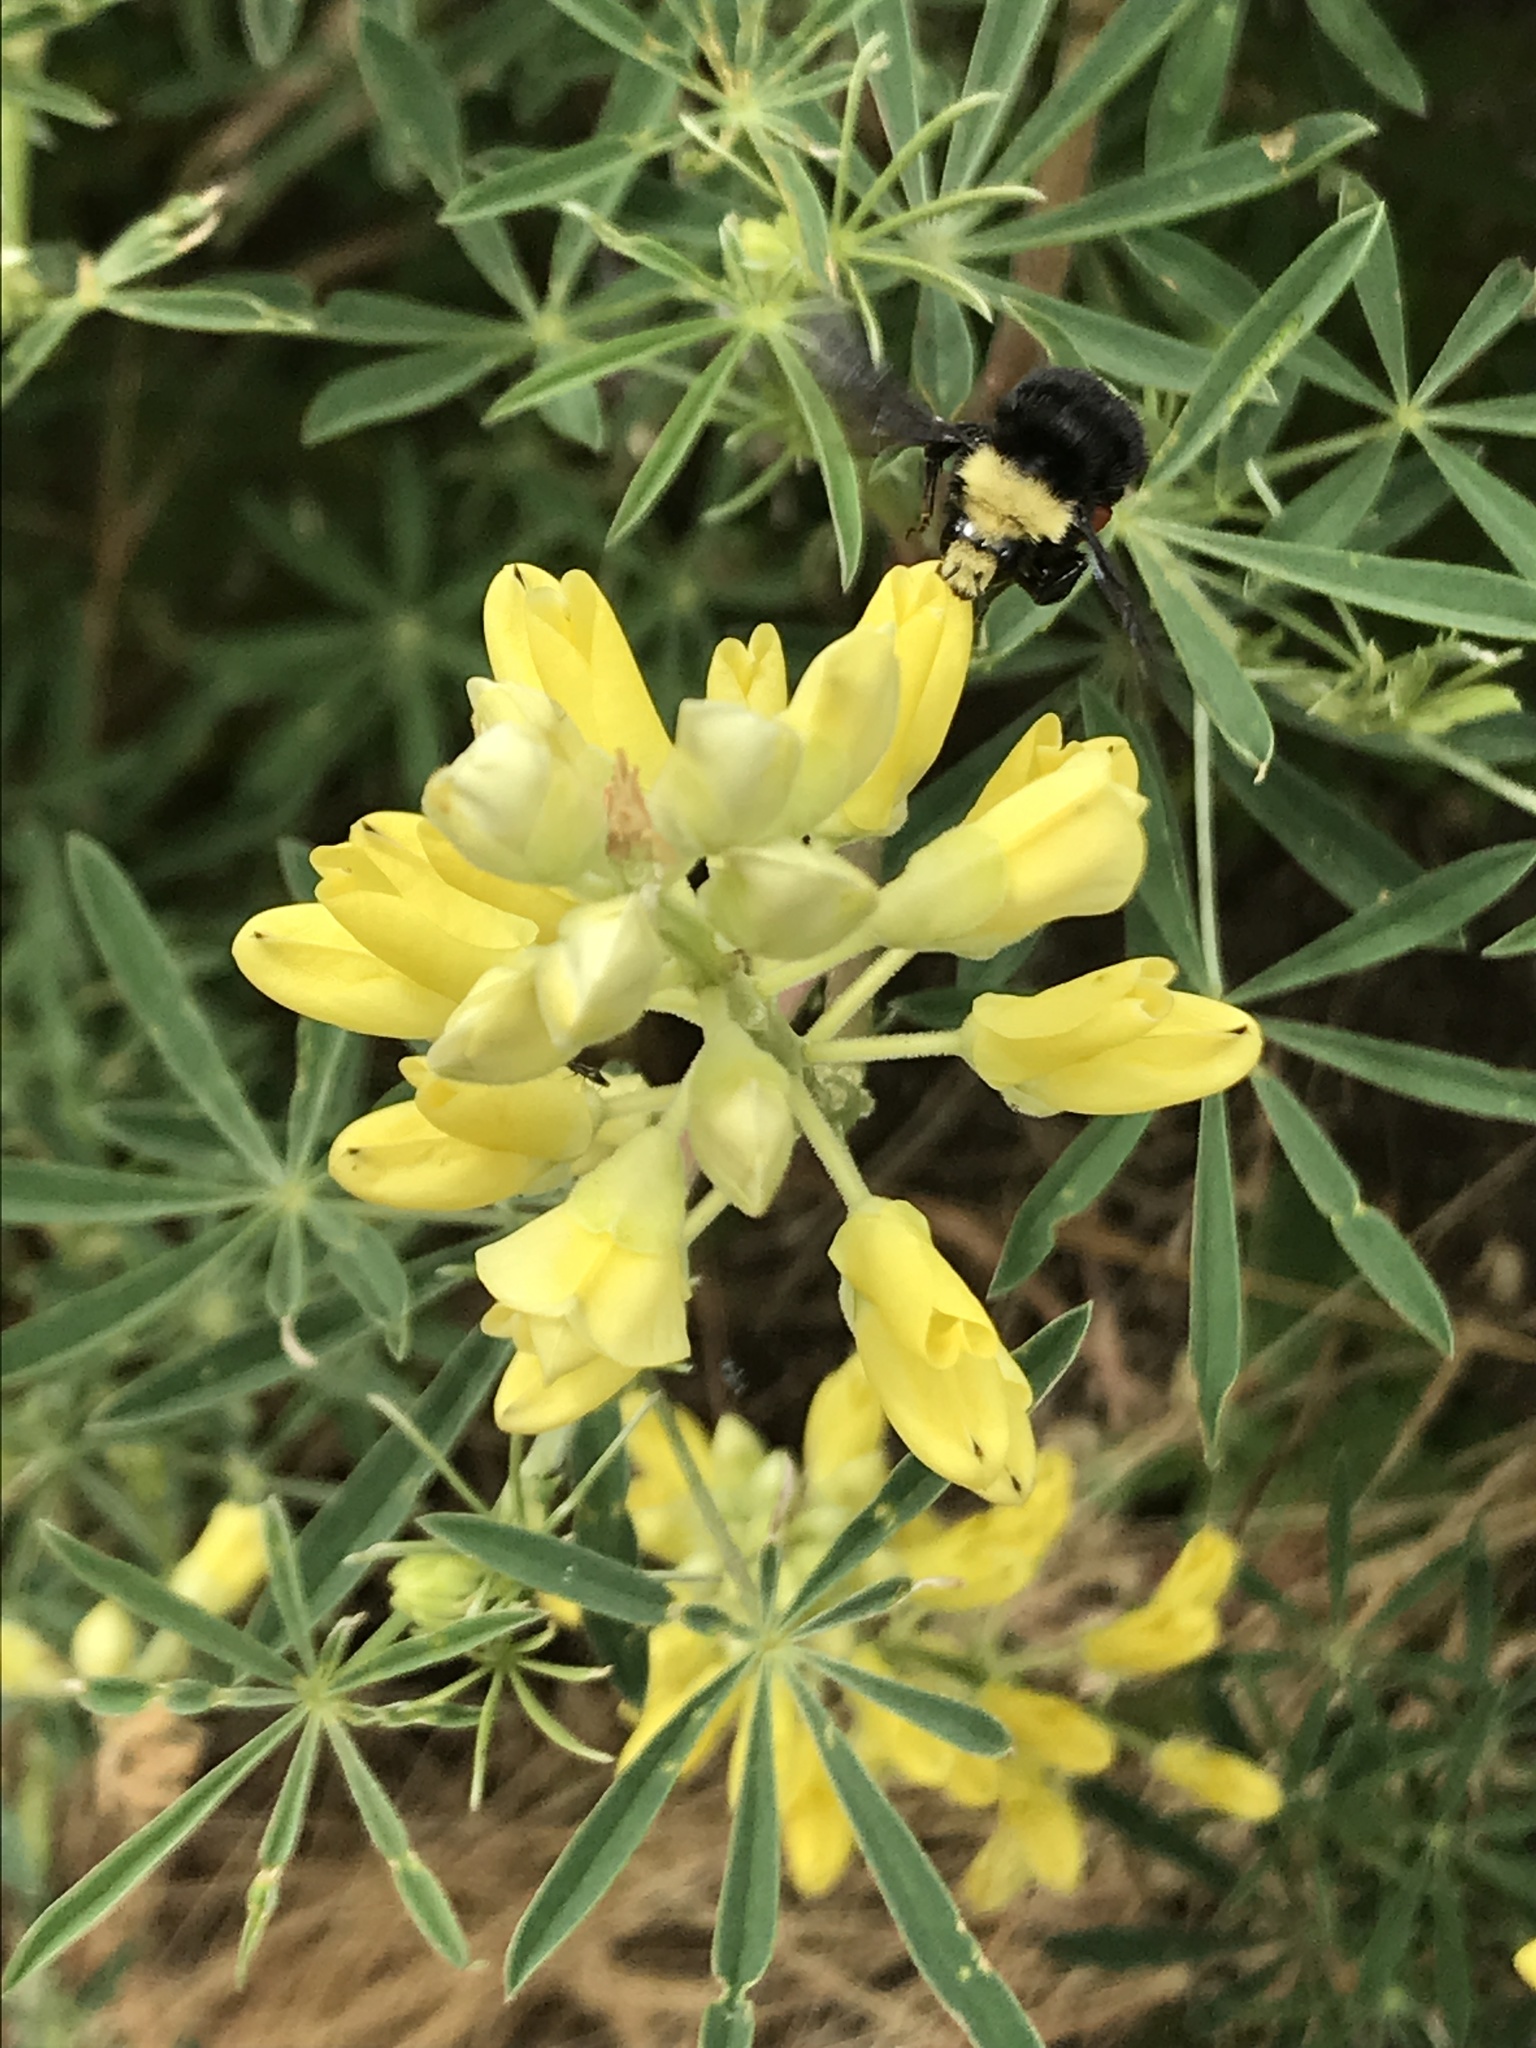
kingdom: Animalia
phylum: Arthropoda
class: Insecta
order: Hymenoptera
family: Apidae
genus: Pyrobombus
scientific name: Pyrobombus
